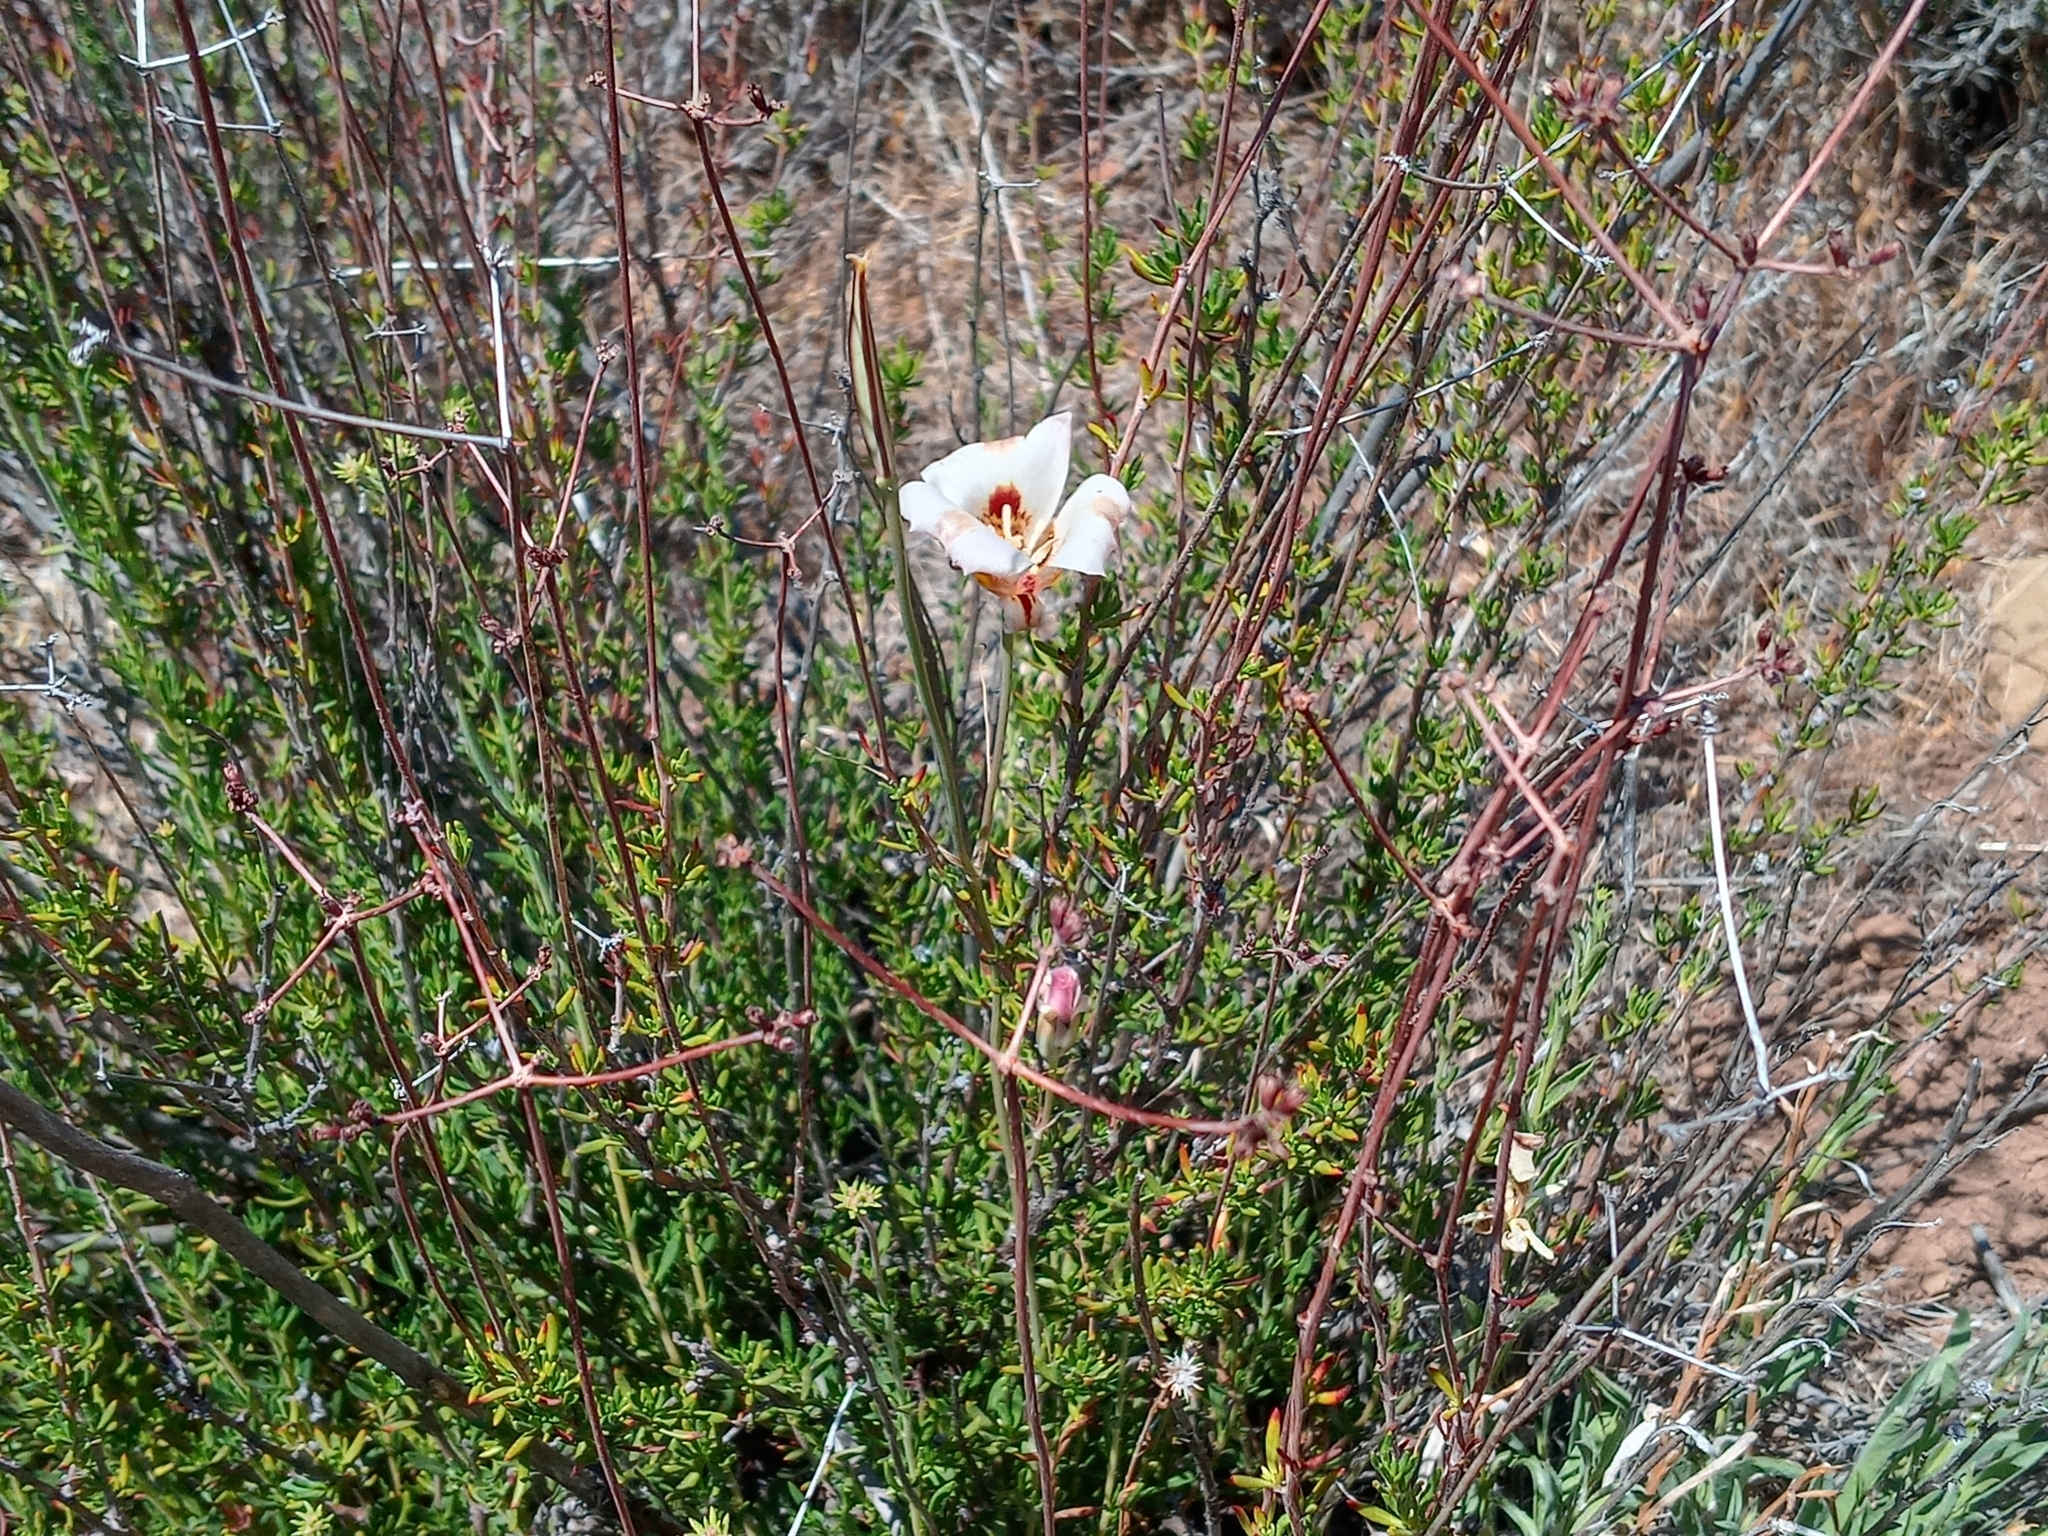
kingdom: Plantae
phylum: Tracheophyta
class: Liliopsida
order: Liliales
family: Liliaceae
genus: Calochortus
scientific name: Calochortus venustus
